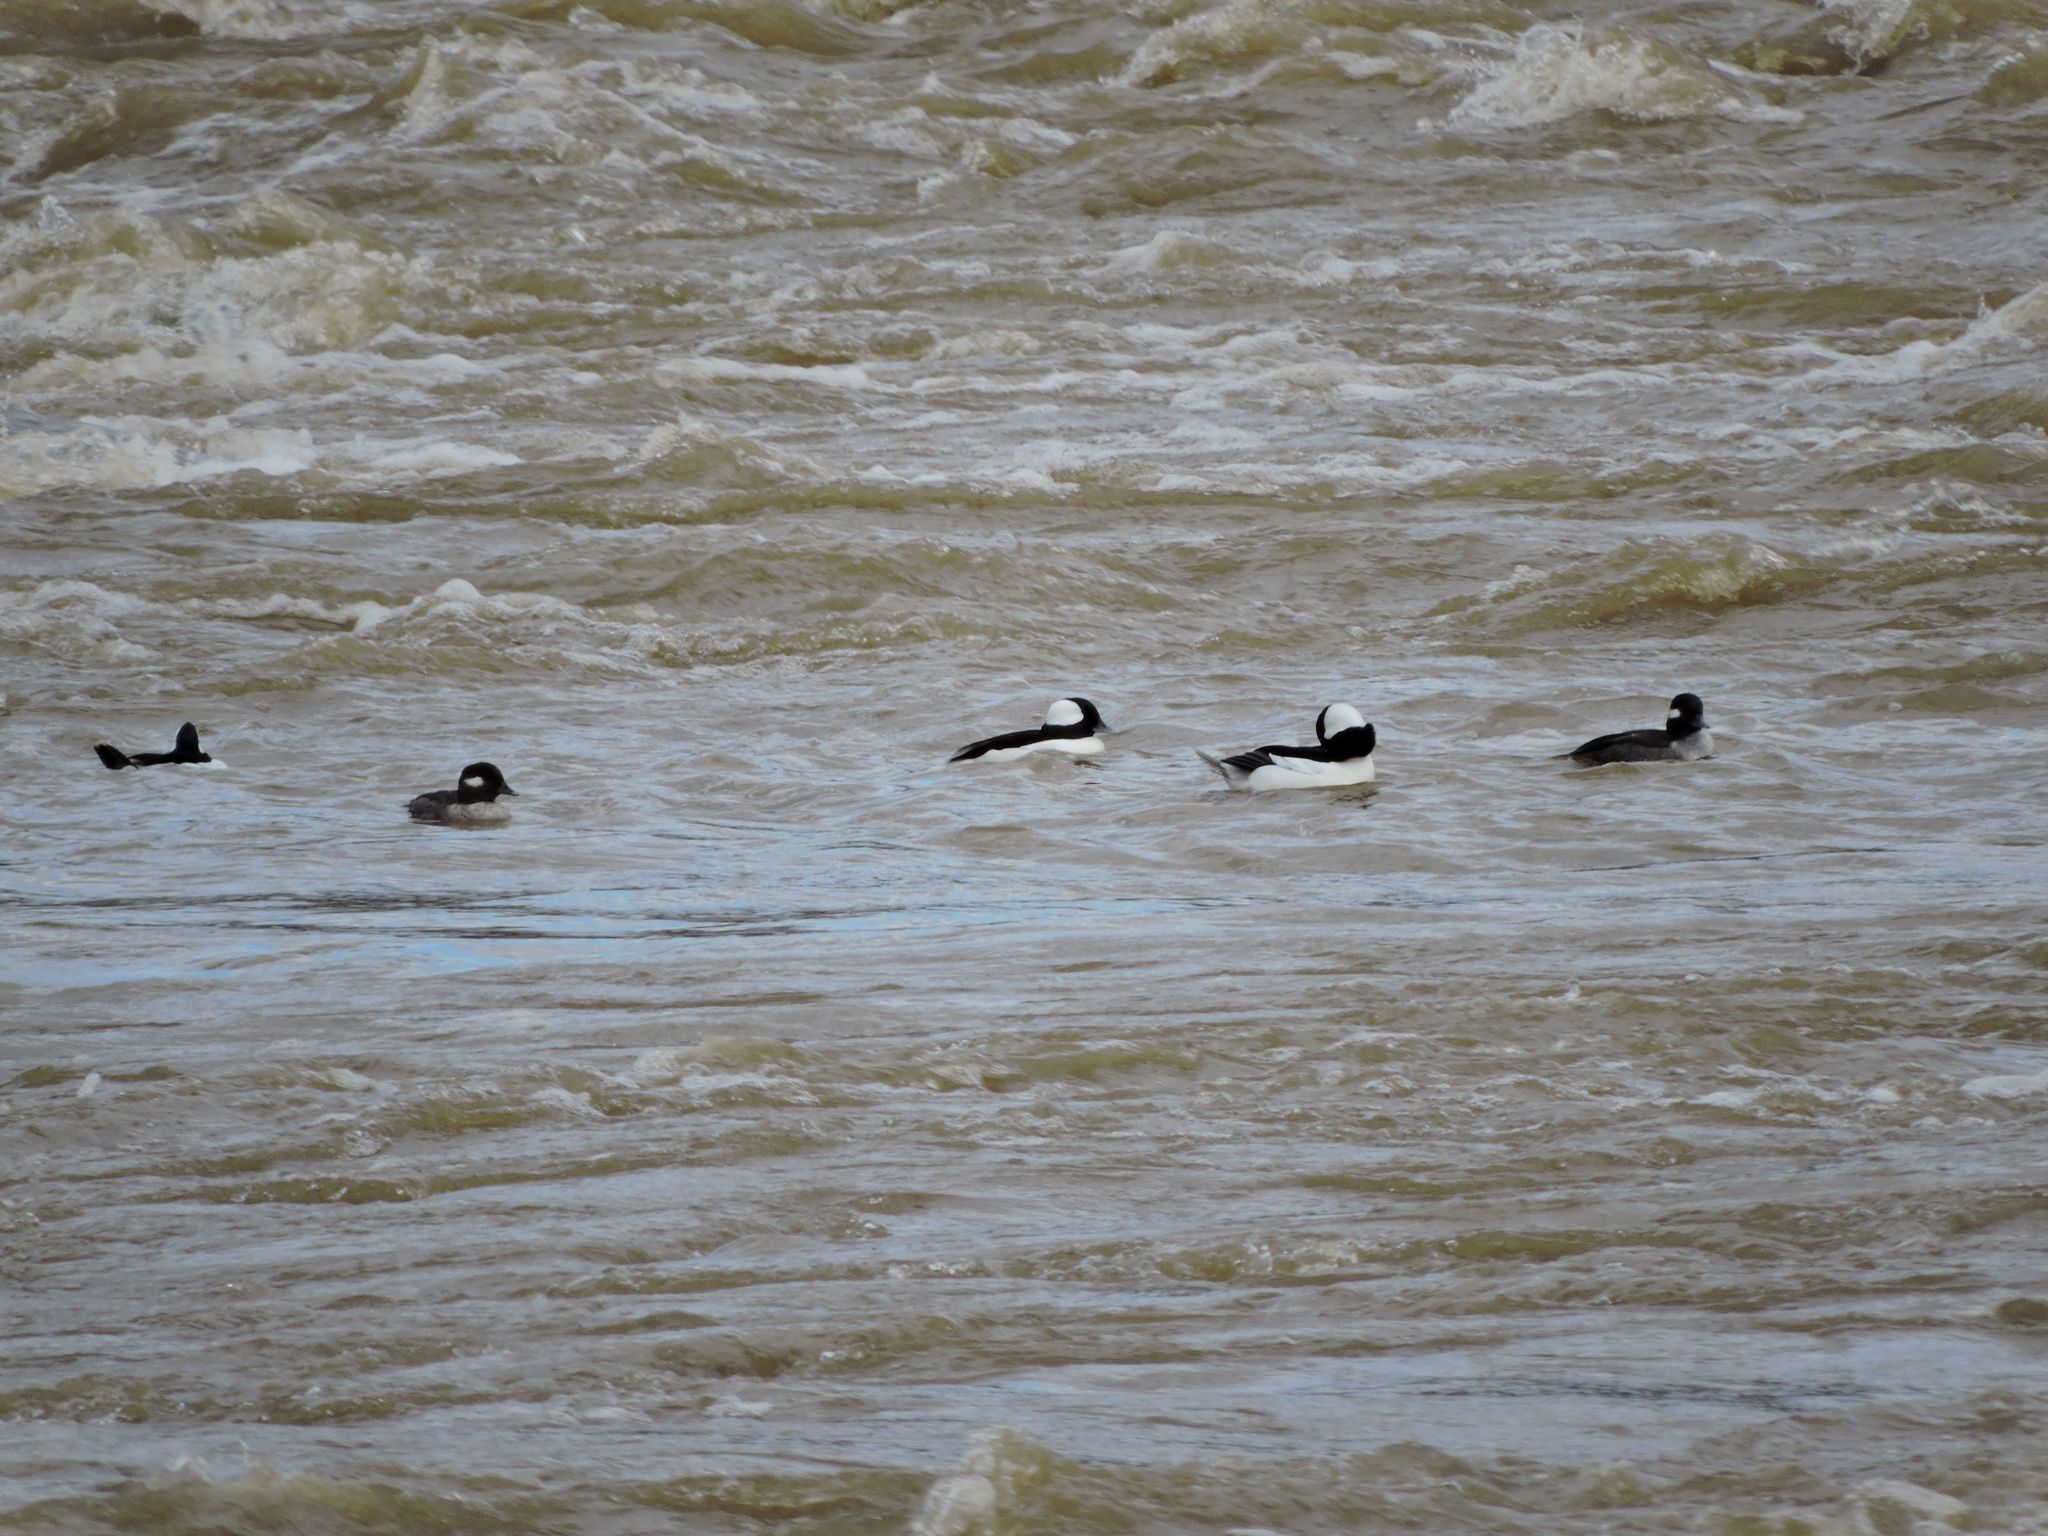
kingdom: Animalia
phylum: Chordata
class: Aves
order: Anseriformes
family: Anatidae
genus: Bucephala
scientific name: Bucephala albeola
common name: Bufflehead
